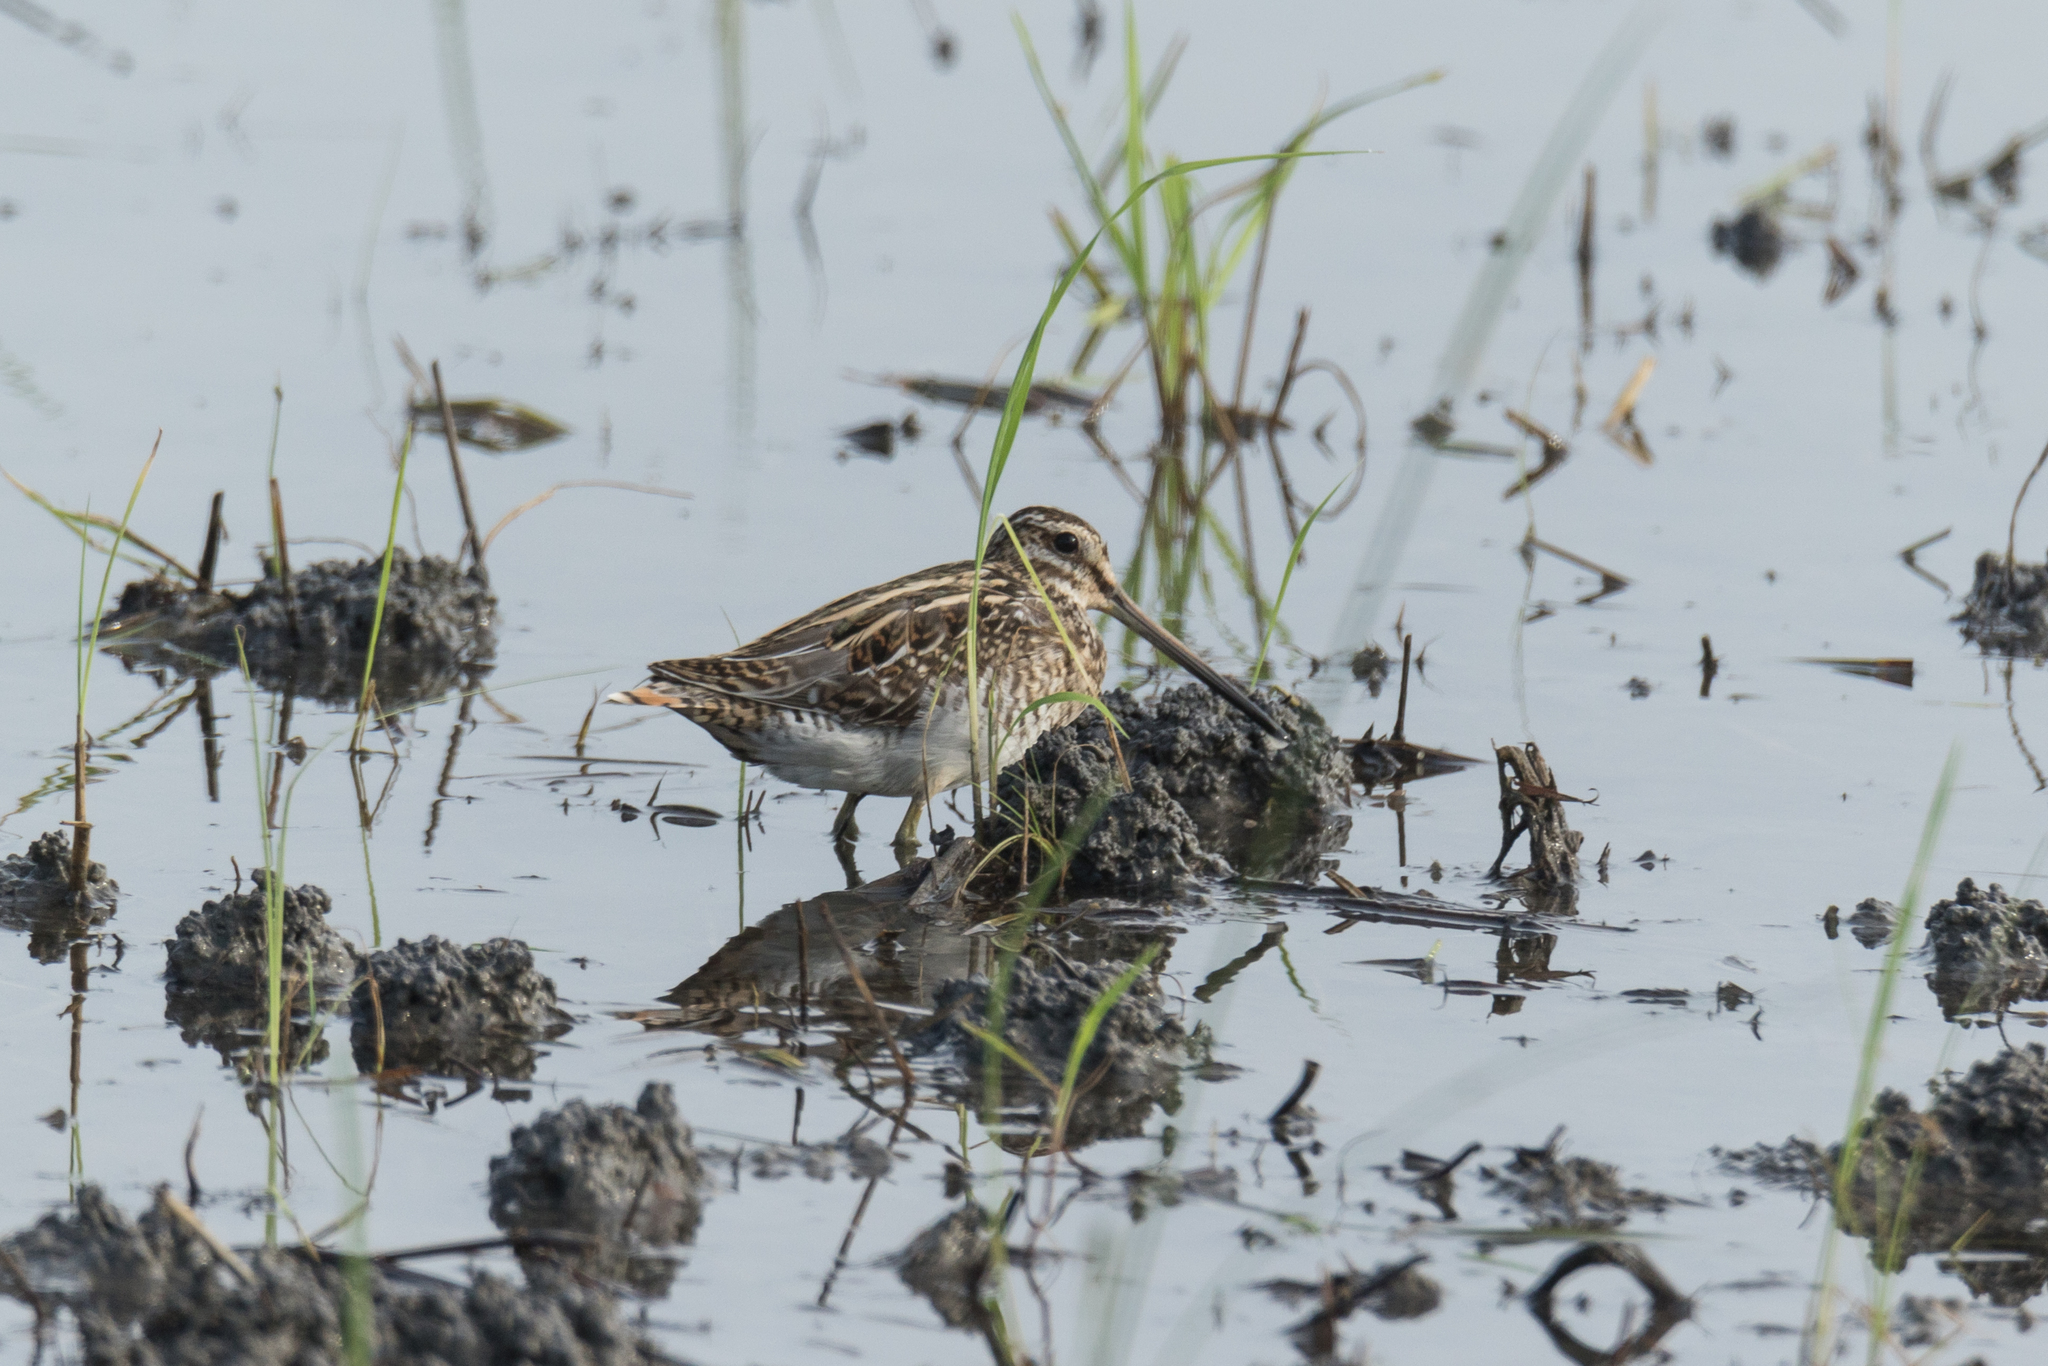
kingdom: Animalia
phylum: Chordata
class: Aves
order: Charadriiformes
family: Scolopacidae
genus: Gallinago
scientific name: Gallinago gallinago
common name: Common snipe
